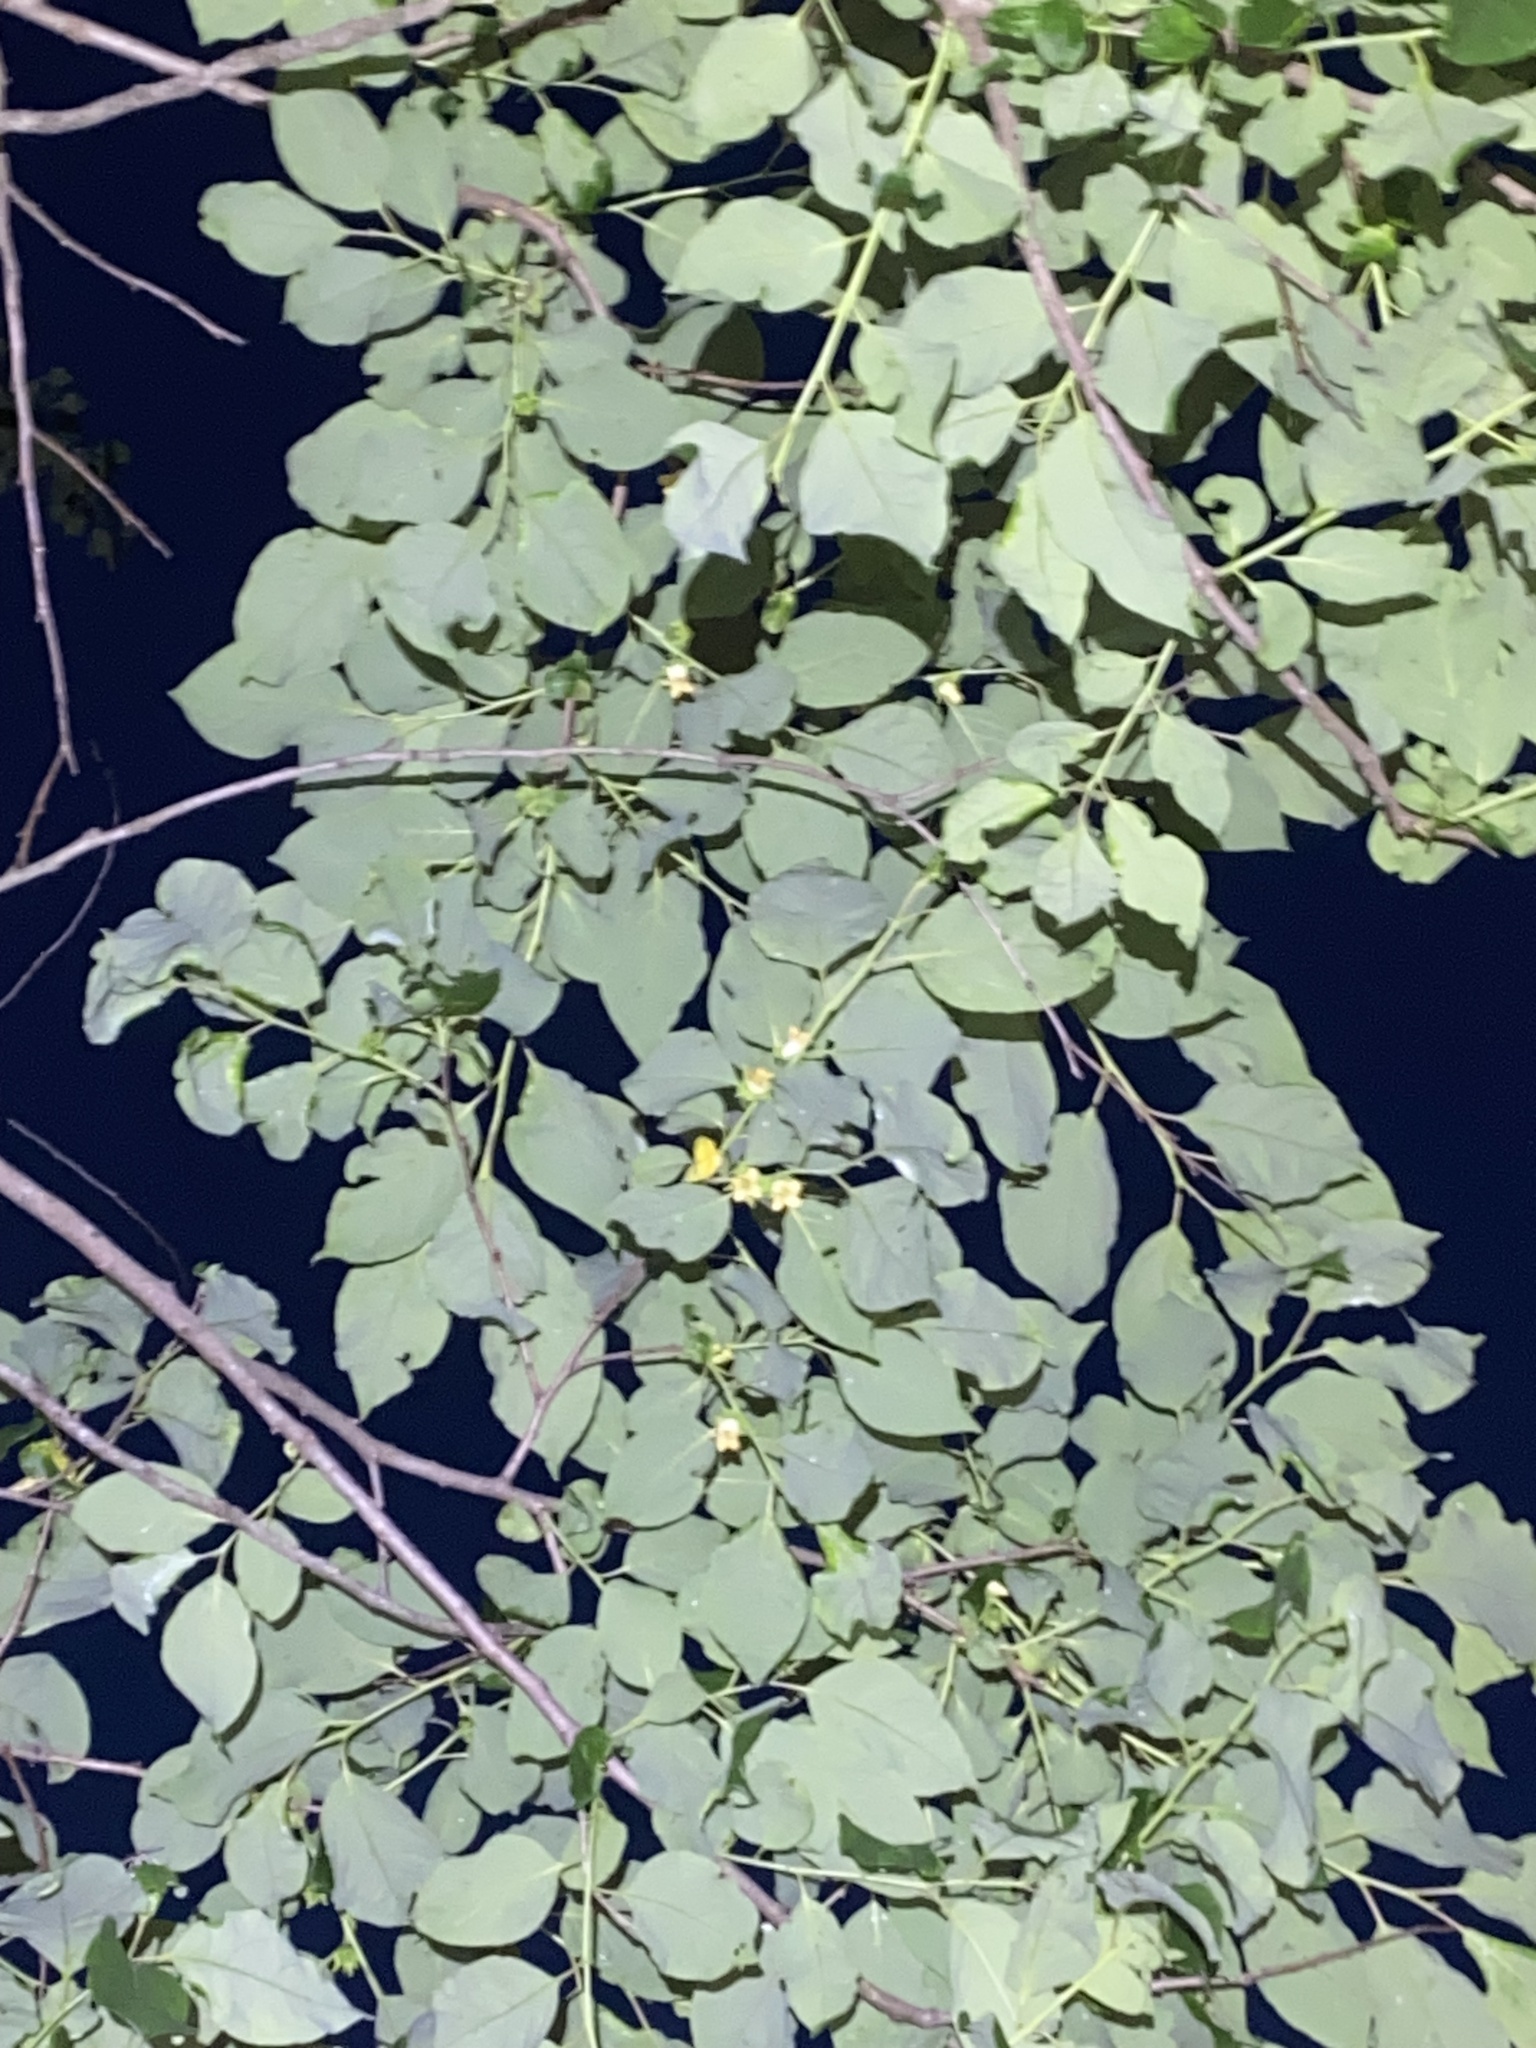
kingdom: Plantae
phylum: Tracheophyta
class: Magnoliopsida
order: Ericales
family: Ebenaceae
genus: Diospyros
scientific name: Diospyros virginiana
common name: Persimmon
